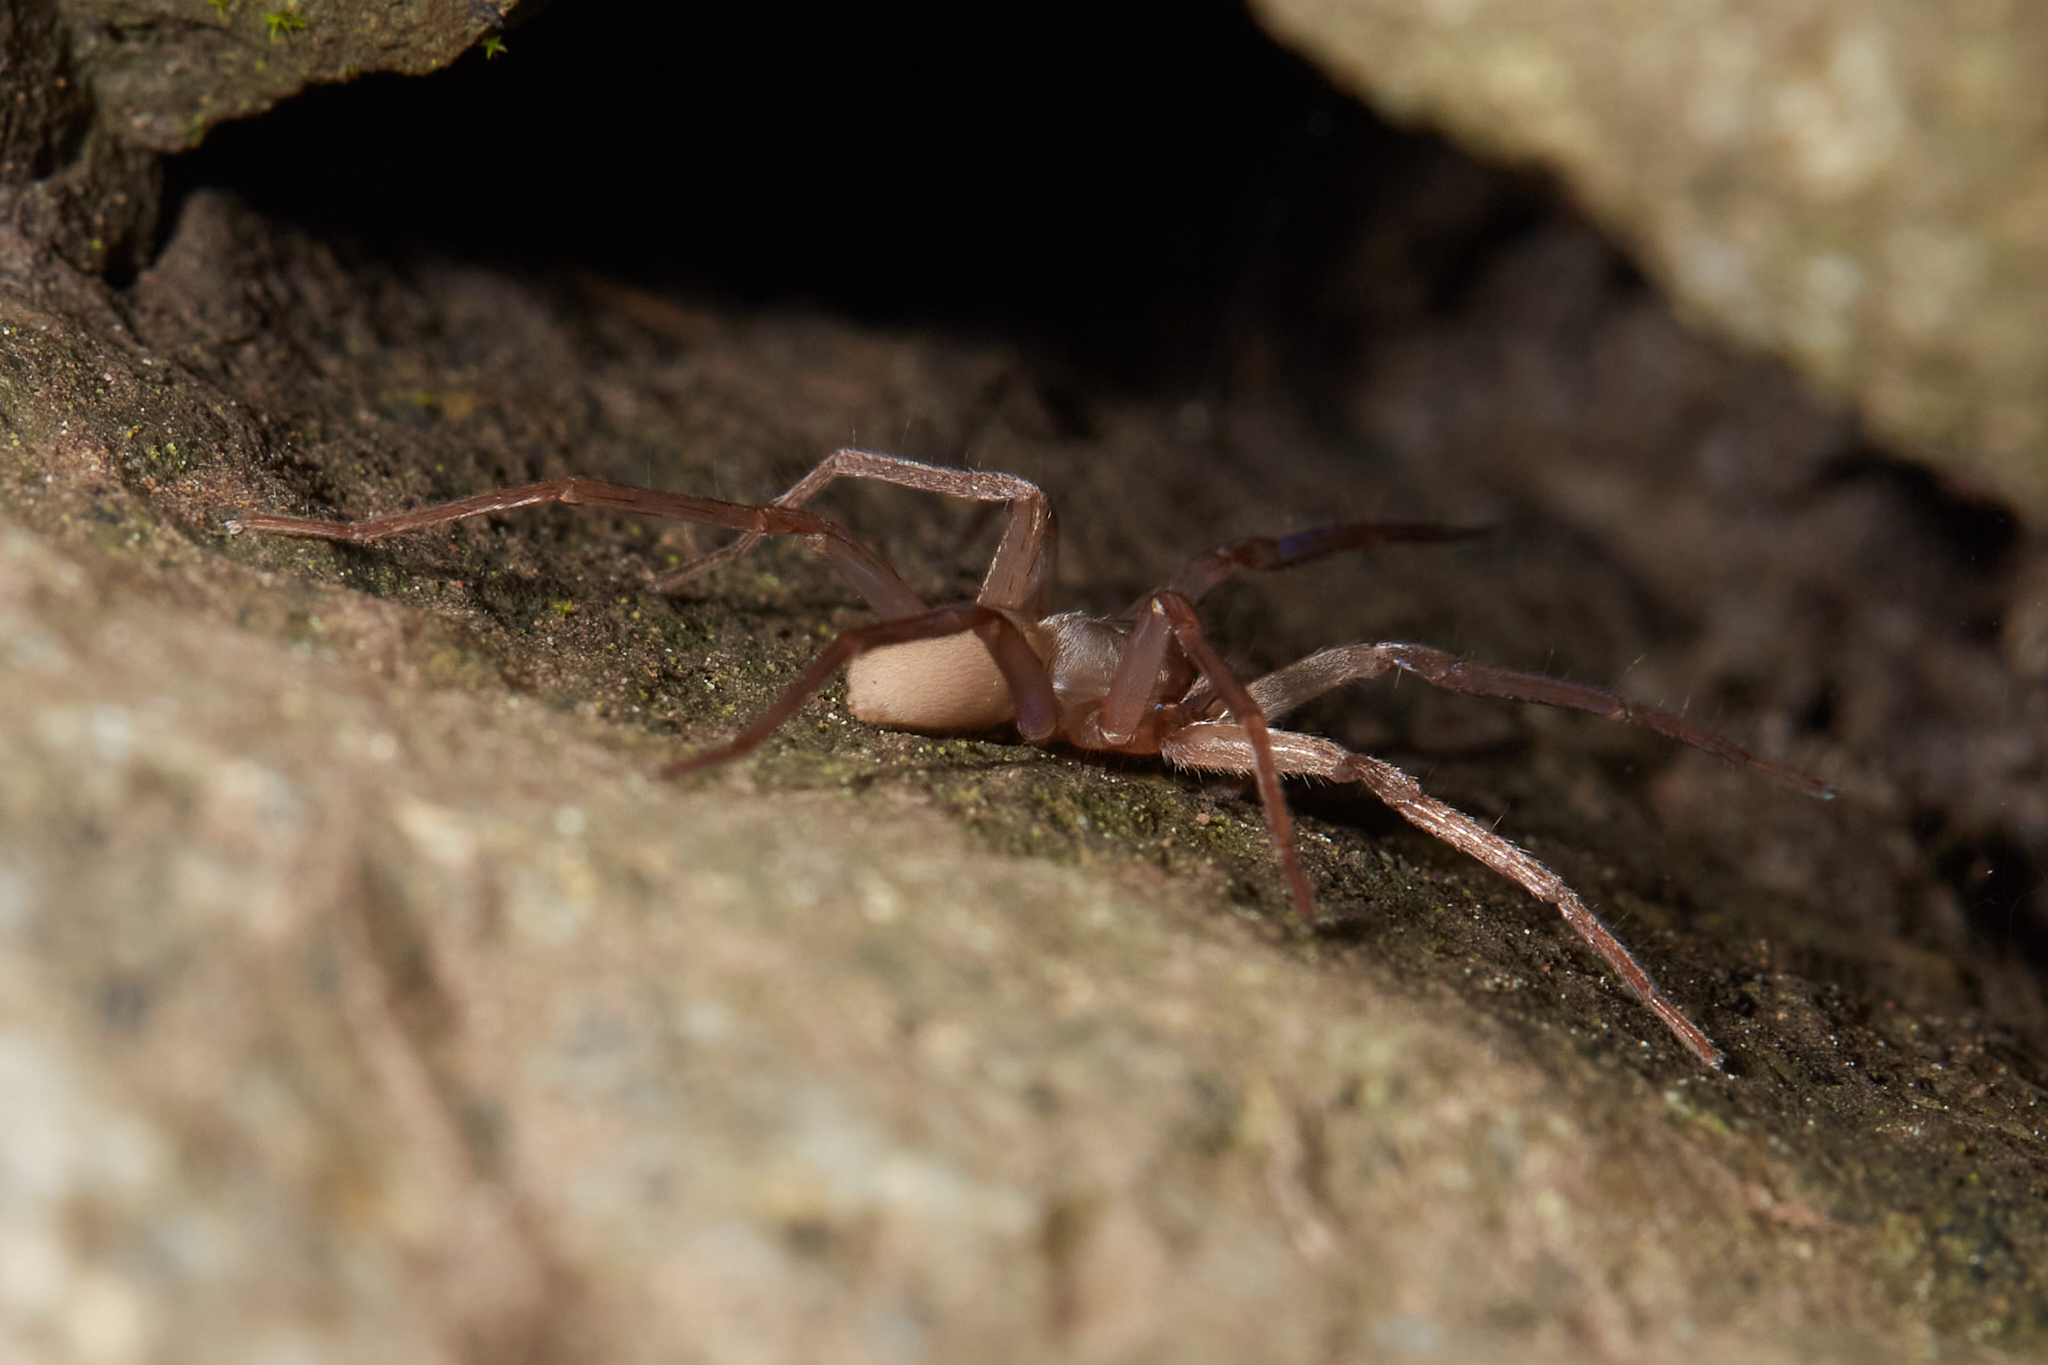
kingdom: Animalia
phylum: Arthropoda
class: Arachnida
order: Araneae
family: Zoropsidae
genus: Titiotus
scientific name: Titiotus
